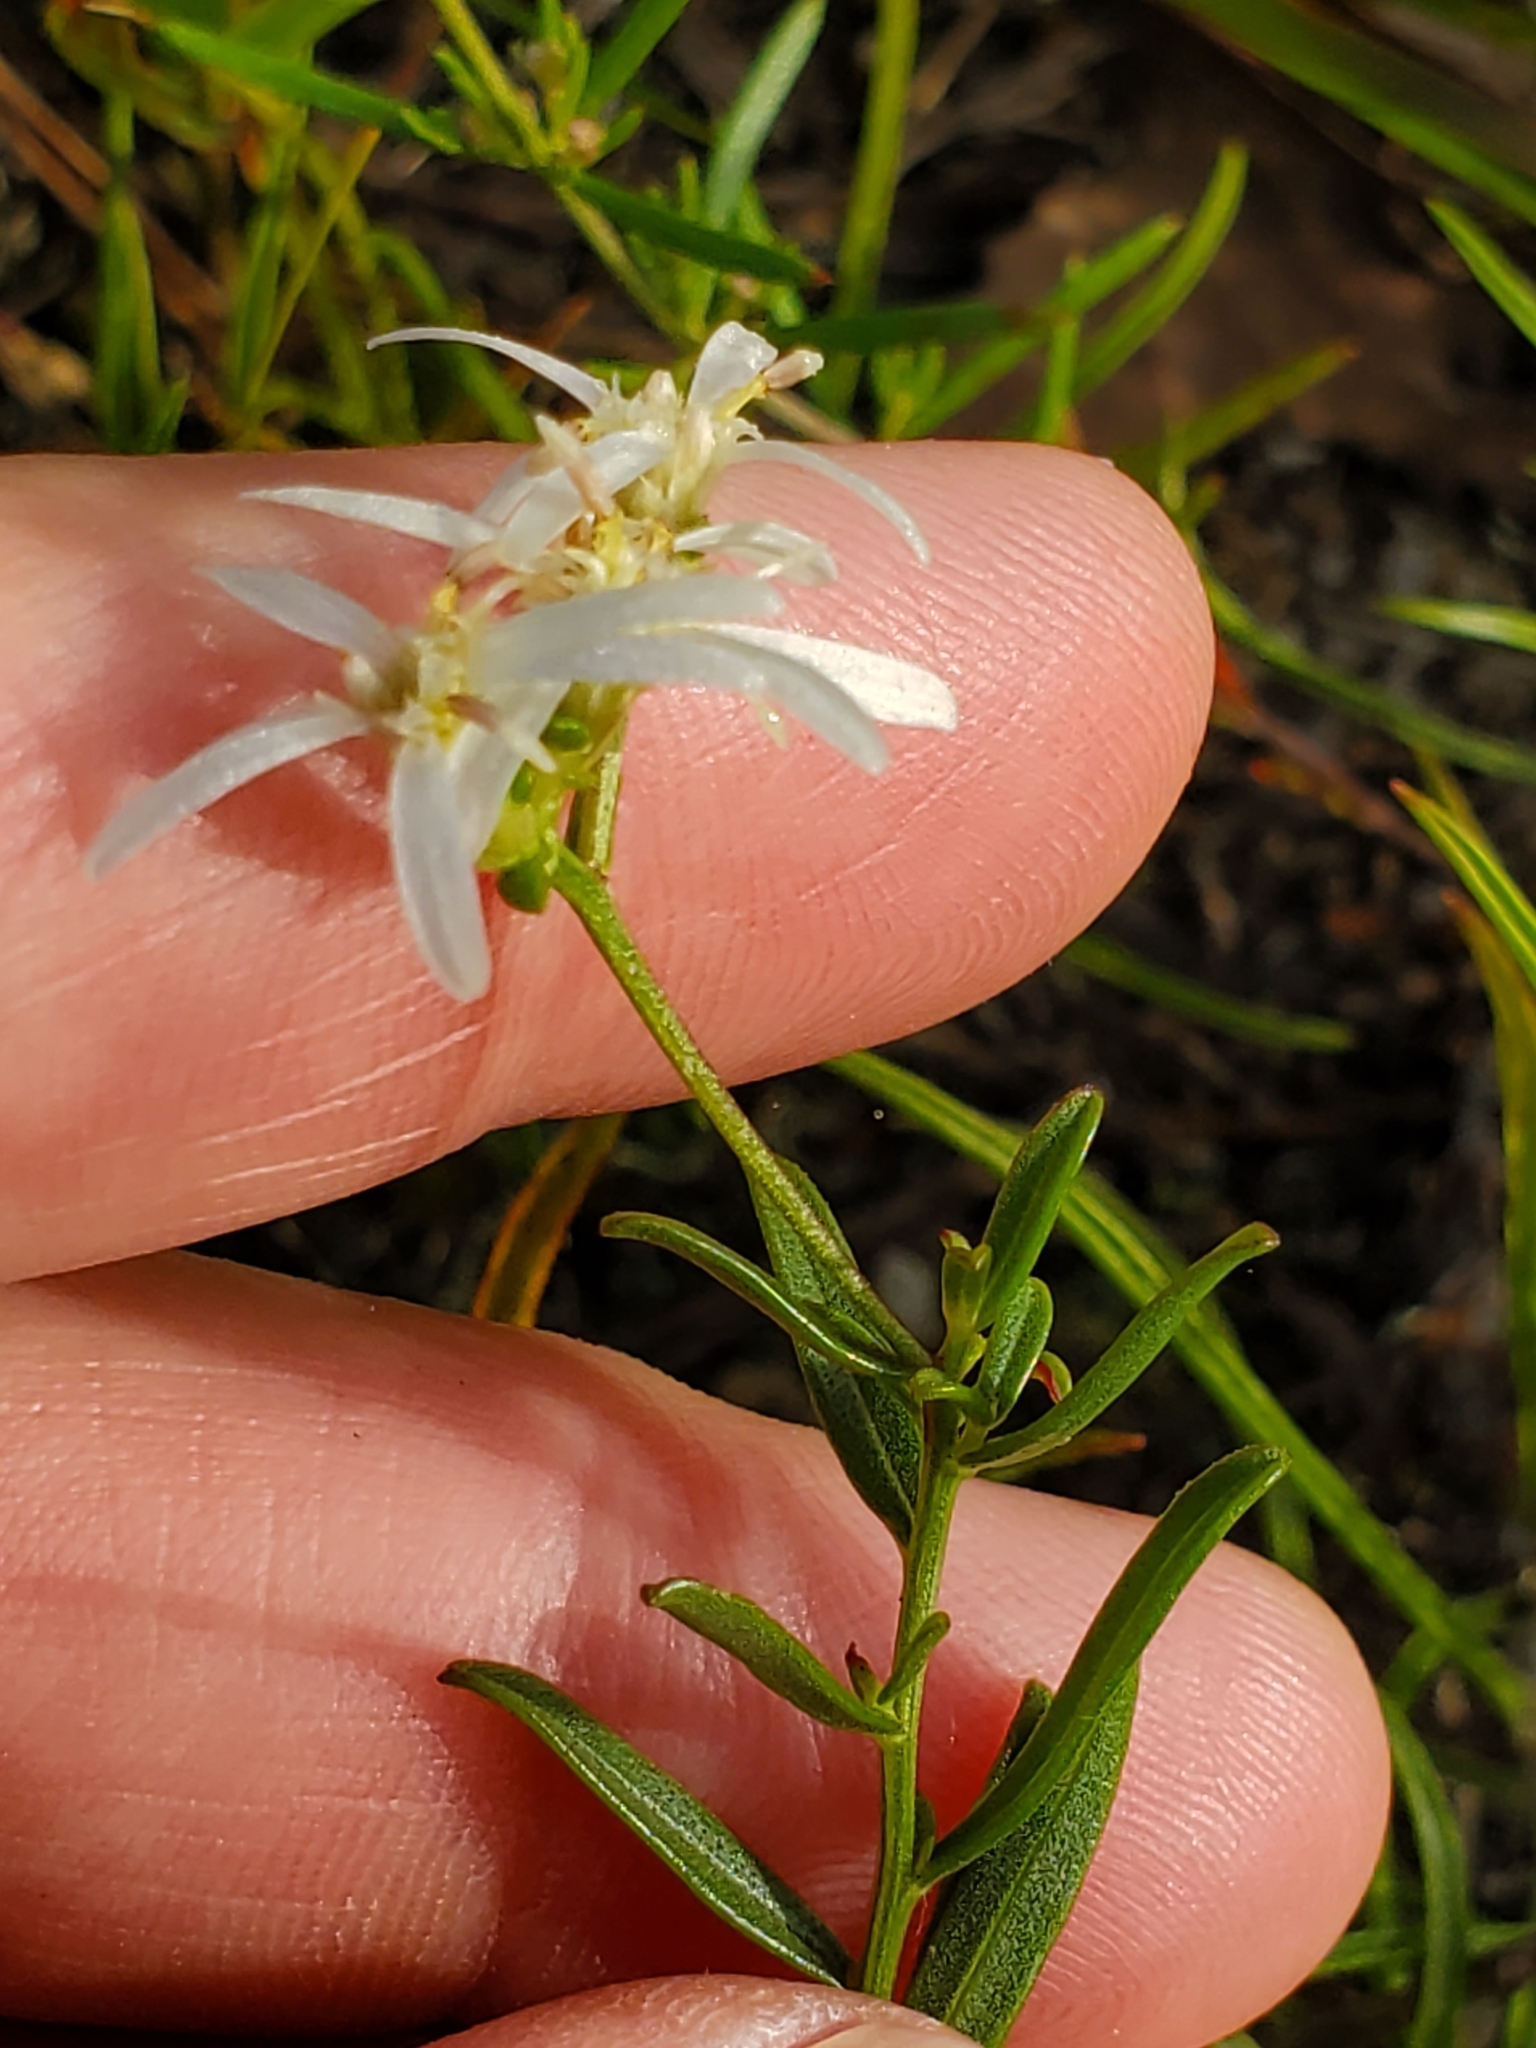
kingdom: Plantae
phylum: Tracheophyta
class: Magnoliopsida
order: Asterales
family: Asteraceae
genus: Sericocarpus
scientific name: Sericocarpus linifolius
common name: Narrow-leaf aster
